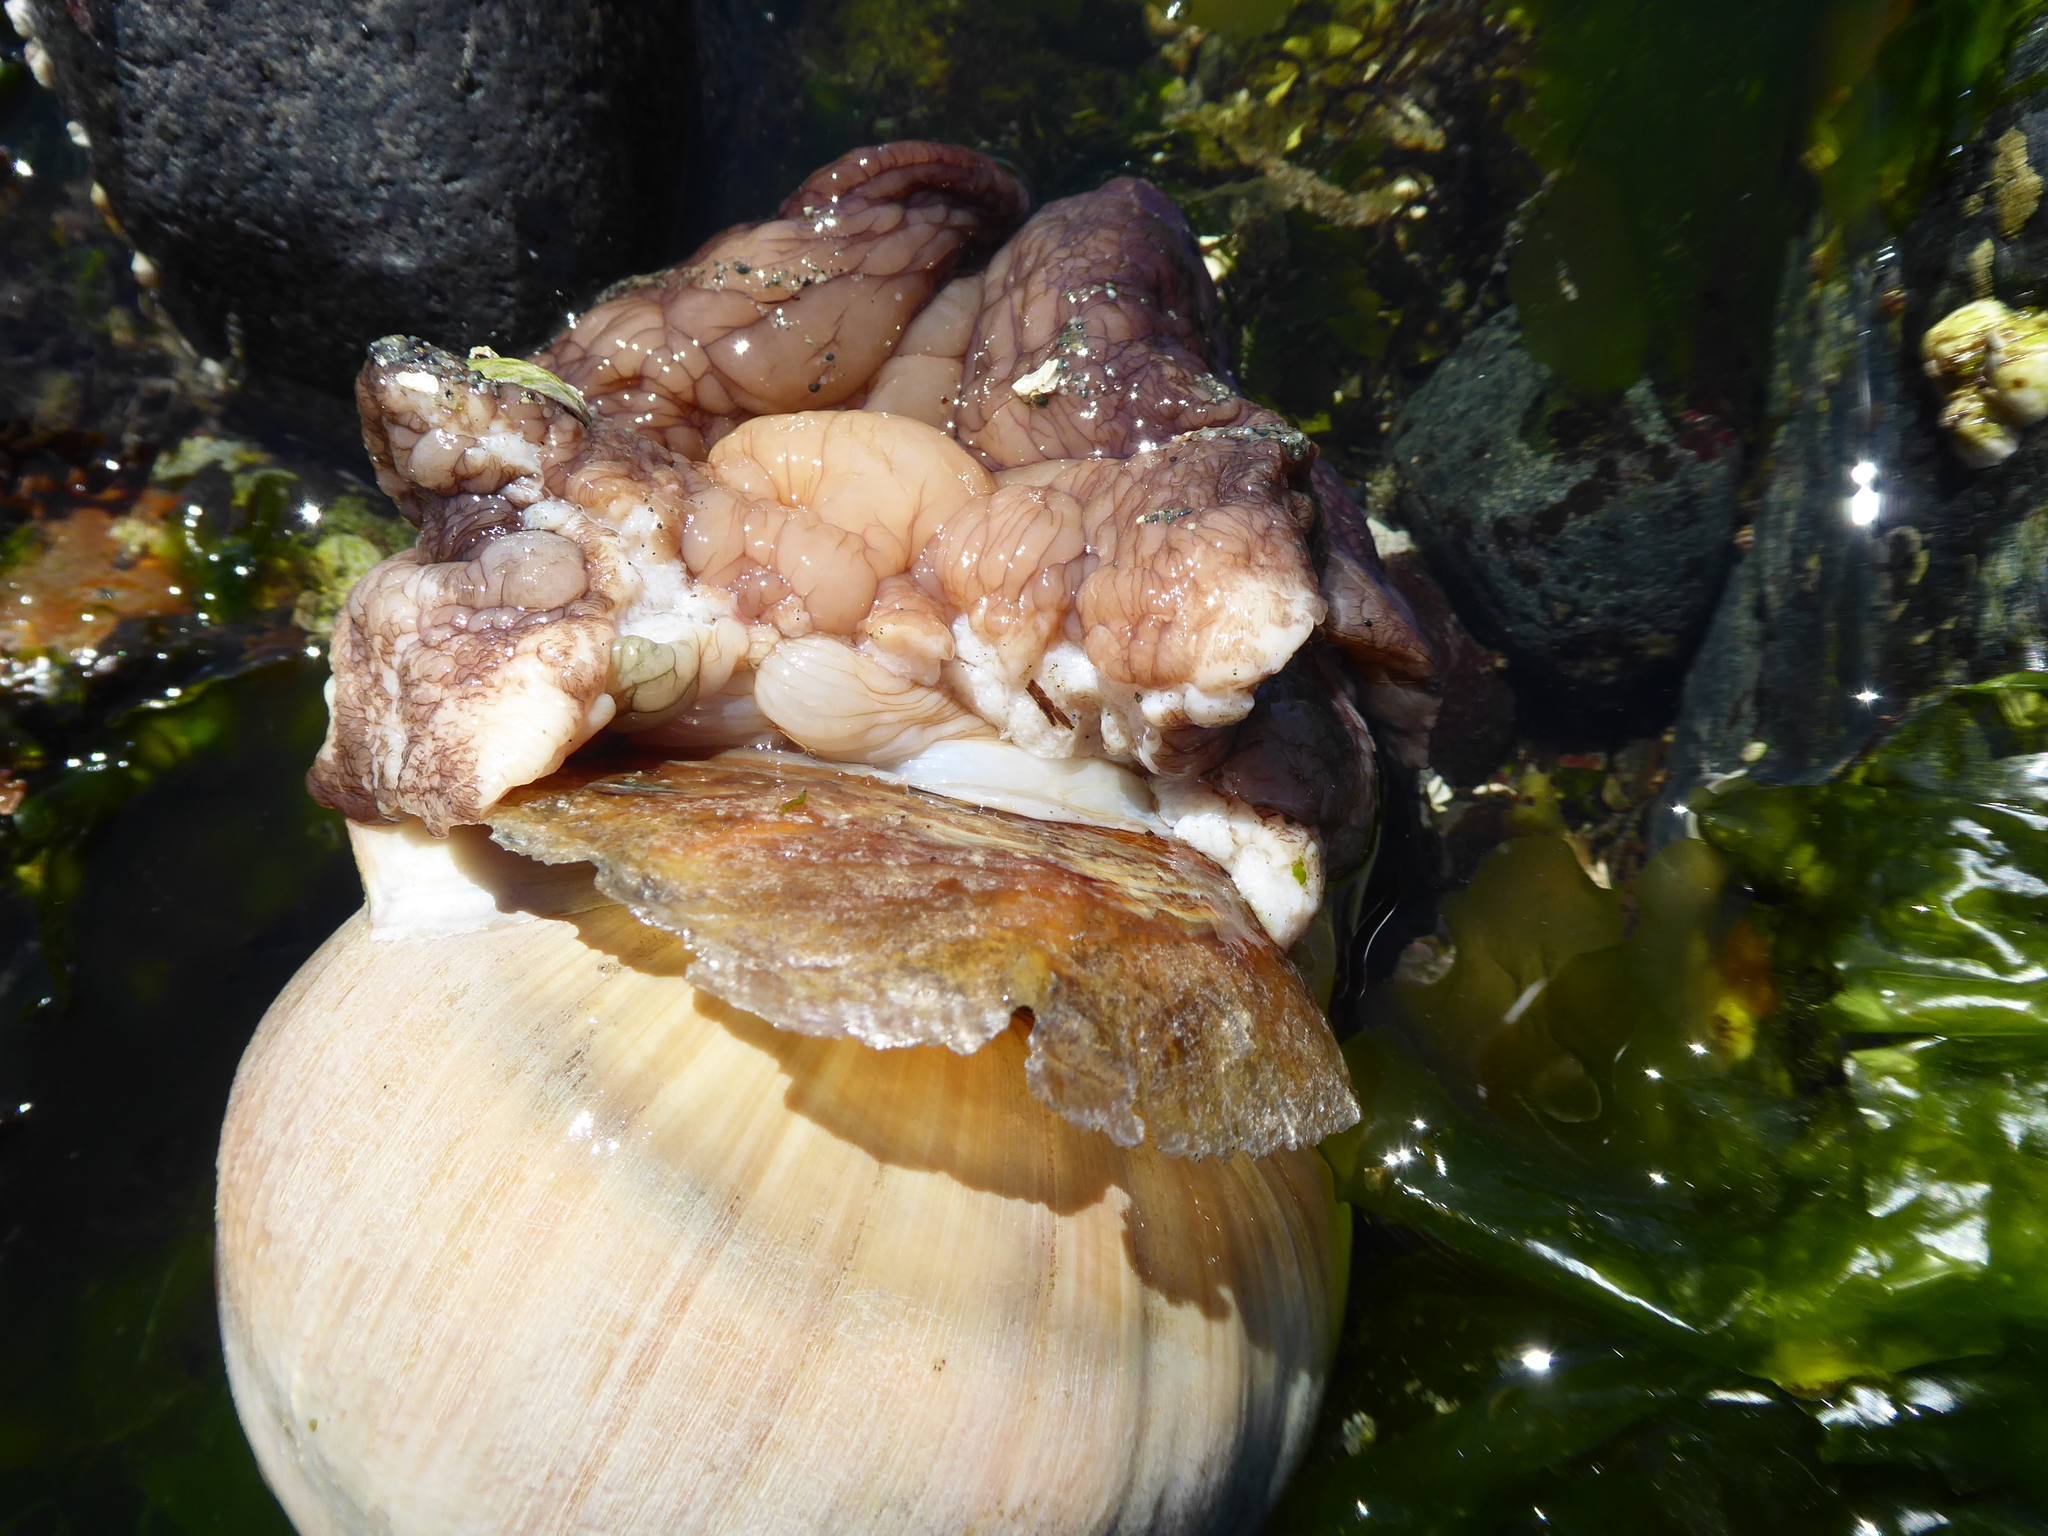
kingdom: Animalia
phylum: Mollusca
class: Gastropoda
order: Littorinimorpha
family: Naticidae
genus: Neverita
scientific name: Neverita lewisii
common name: Lewis' moonsnail
